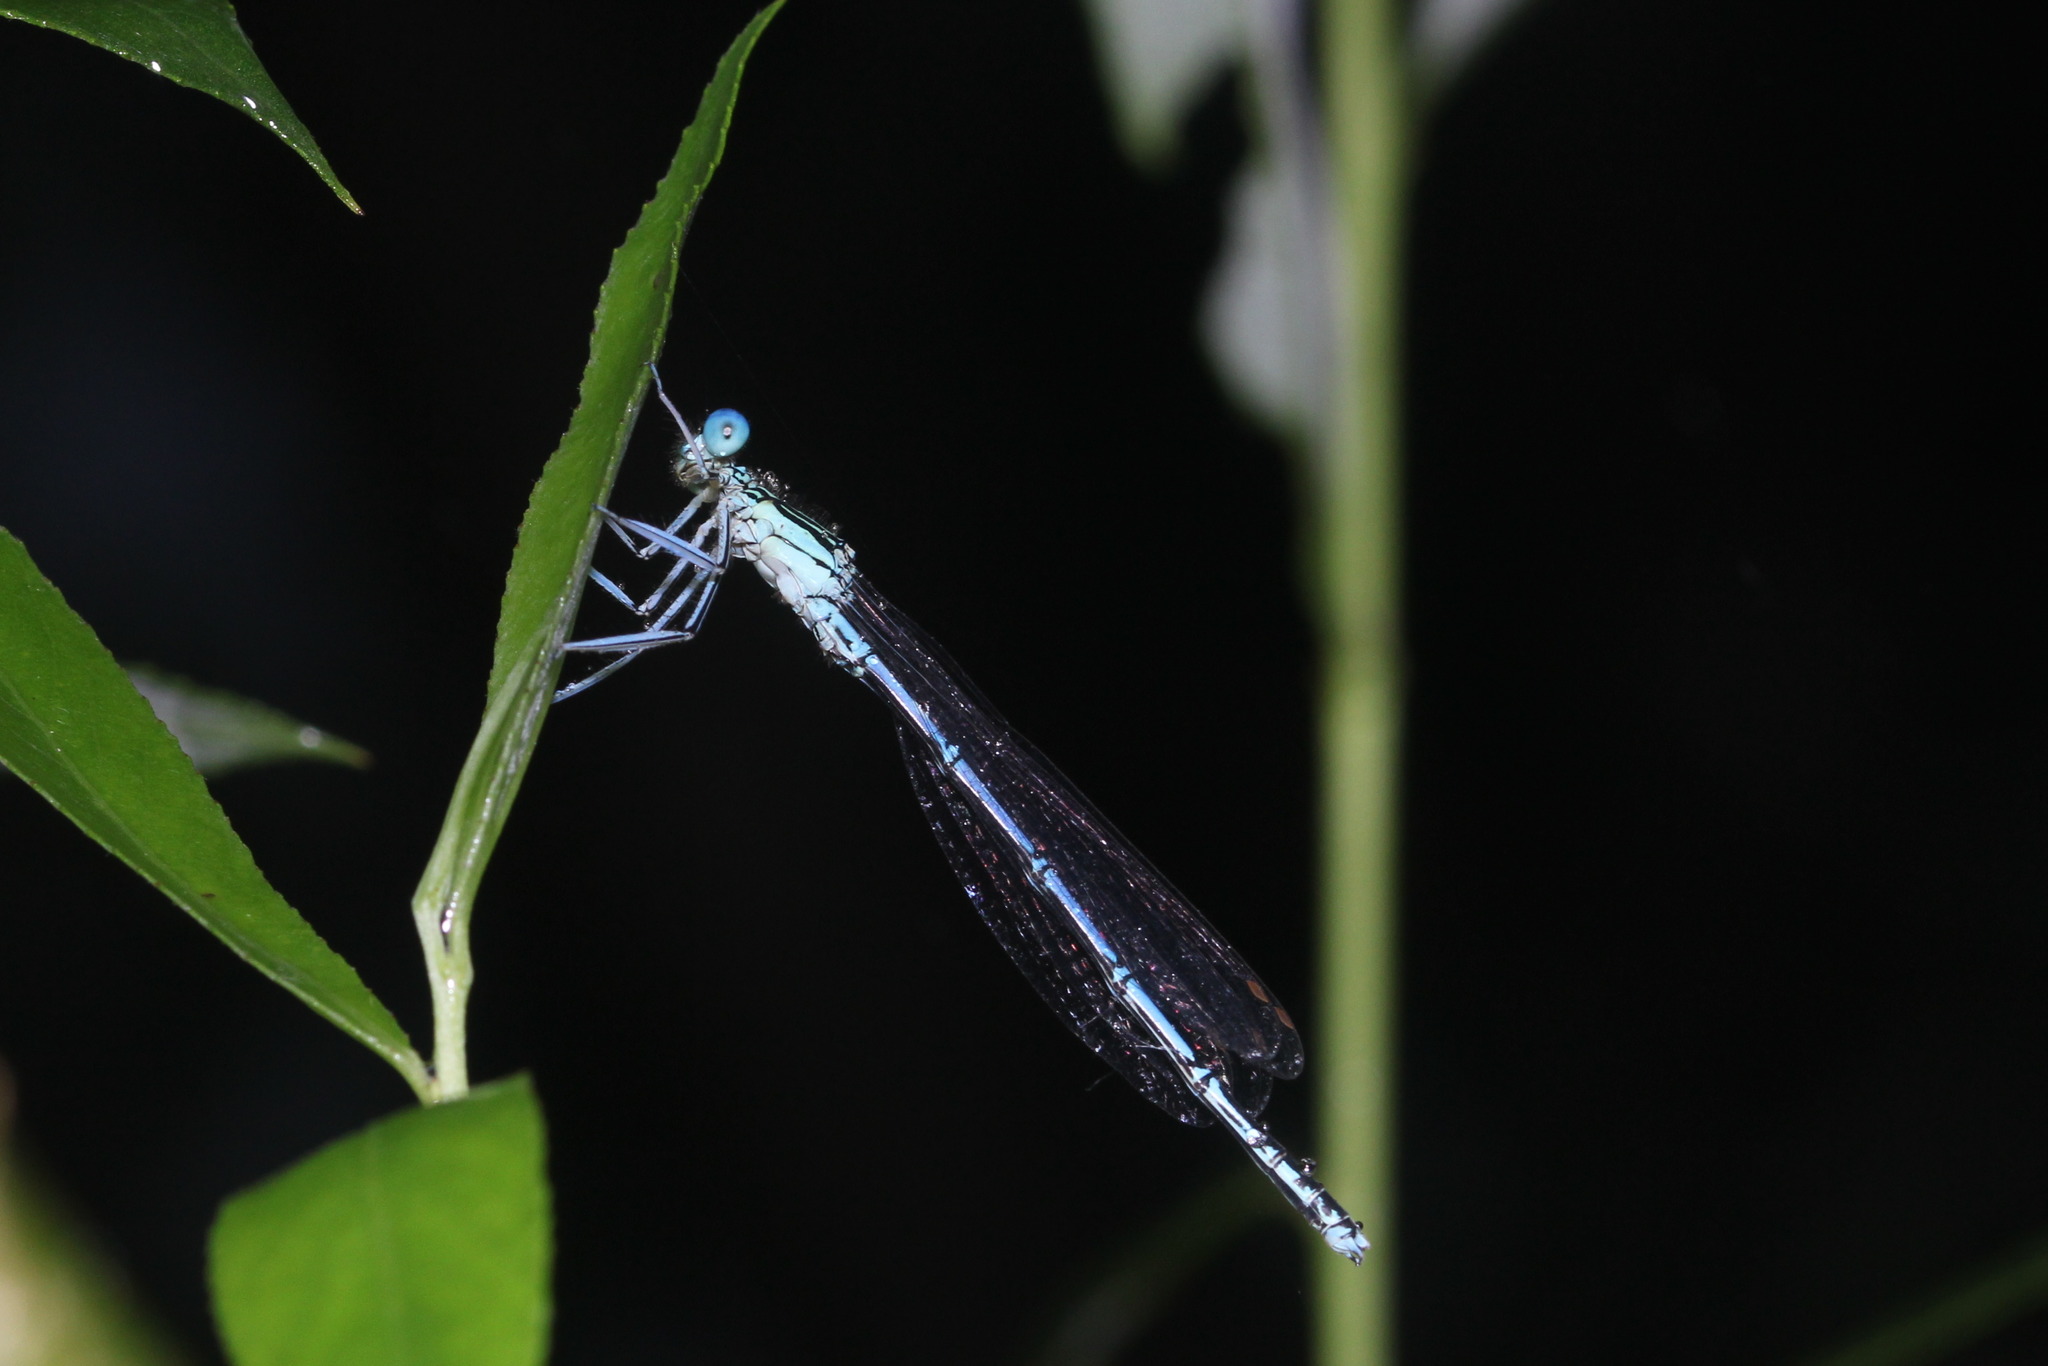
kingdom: Animalia
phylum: Arthropoda
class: Insecta
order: Odonata
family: Platycnemididae
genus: Platycnemis
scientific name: Platycnemis pennipes
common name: White-legged damselfly
